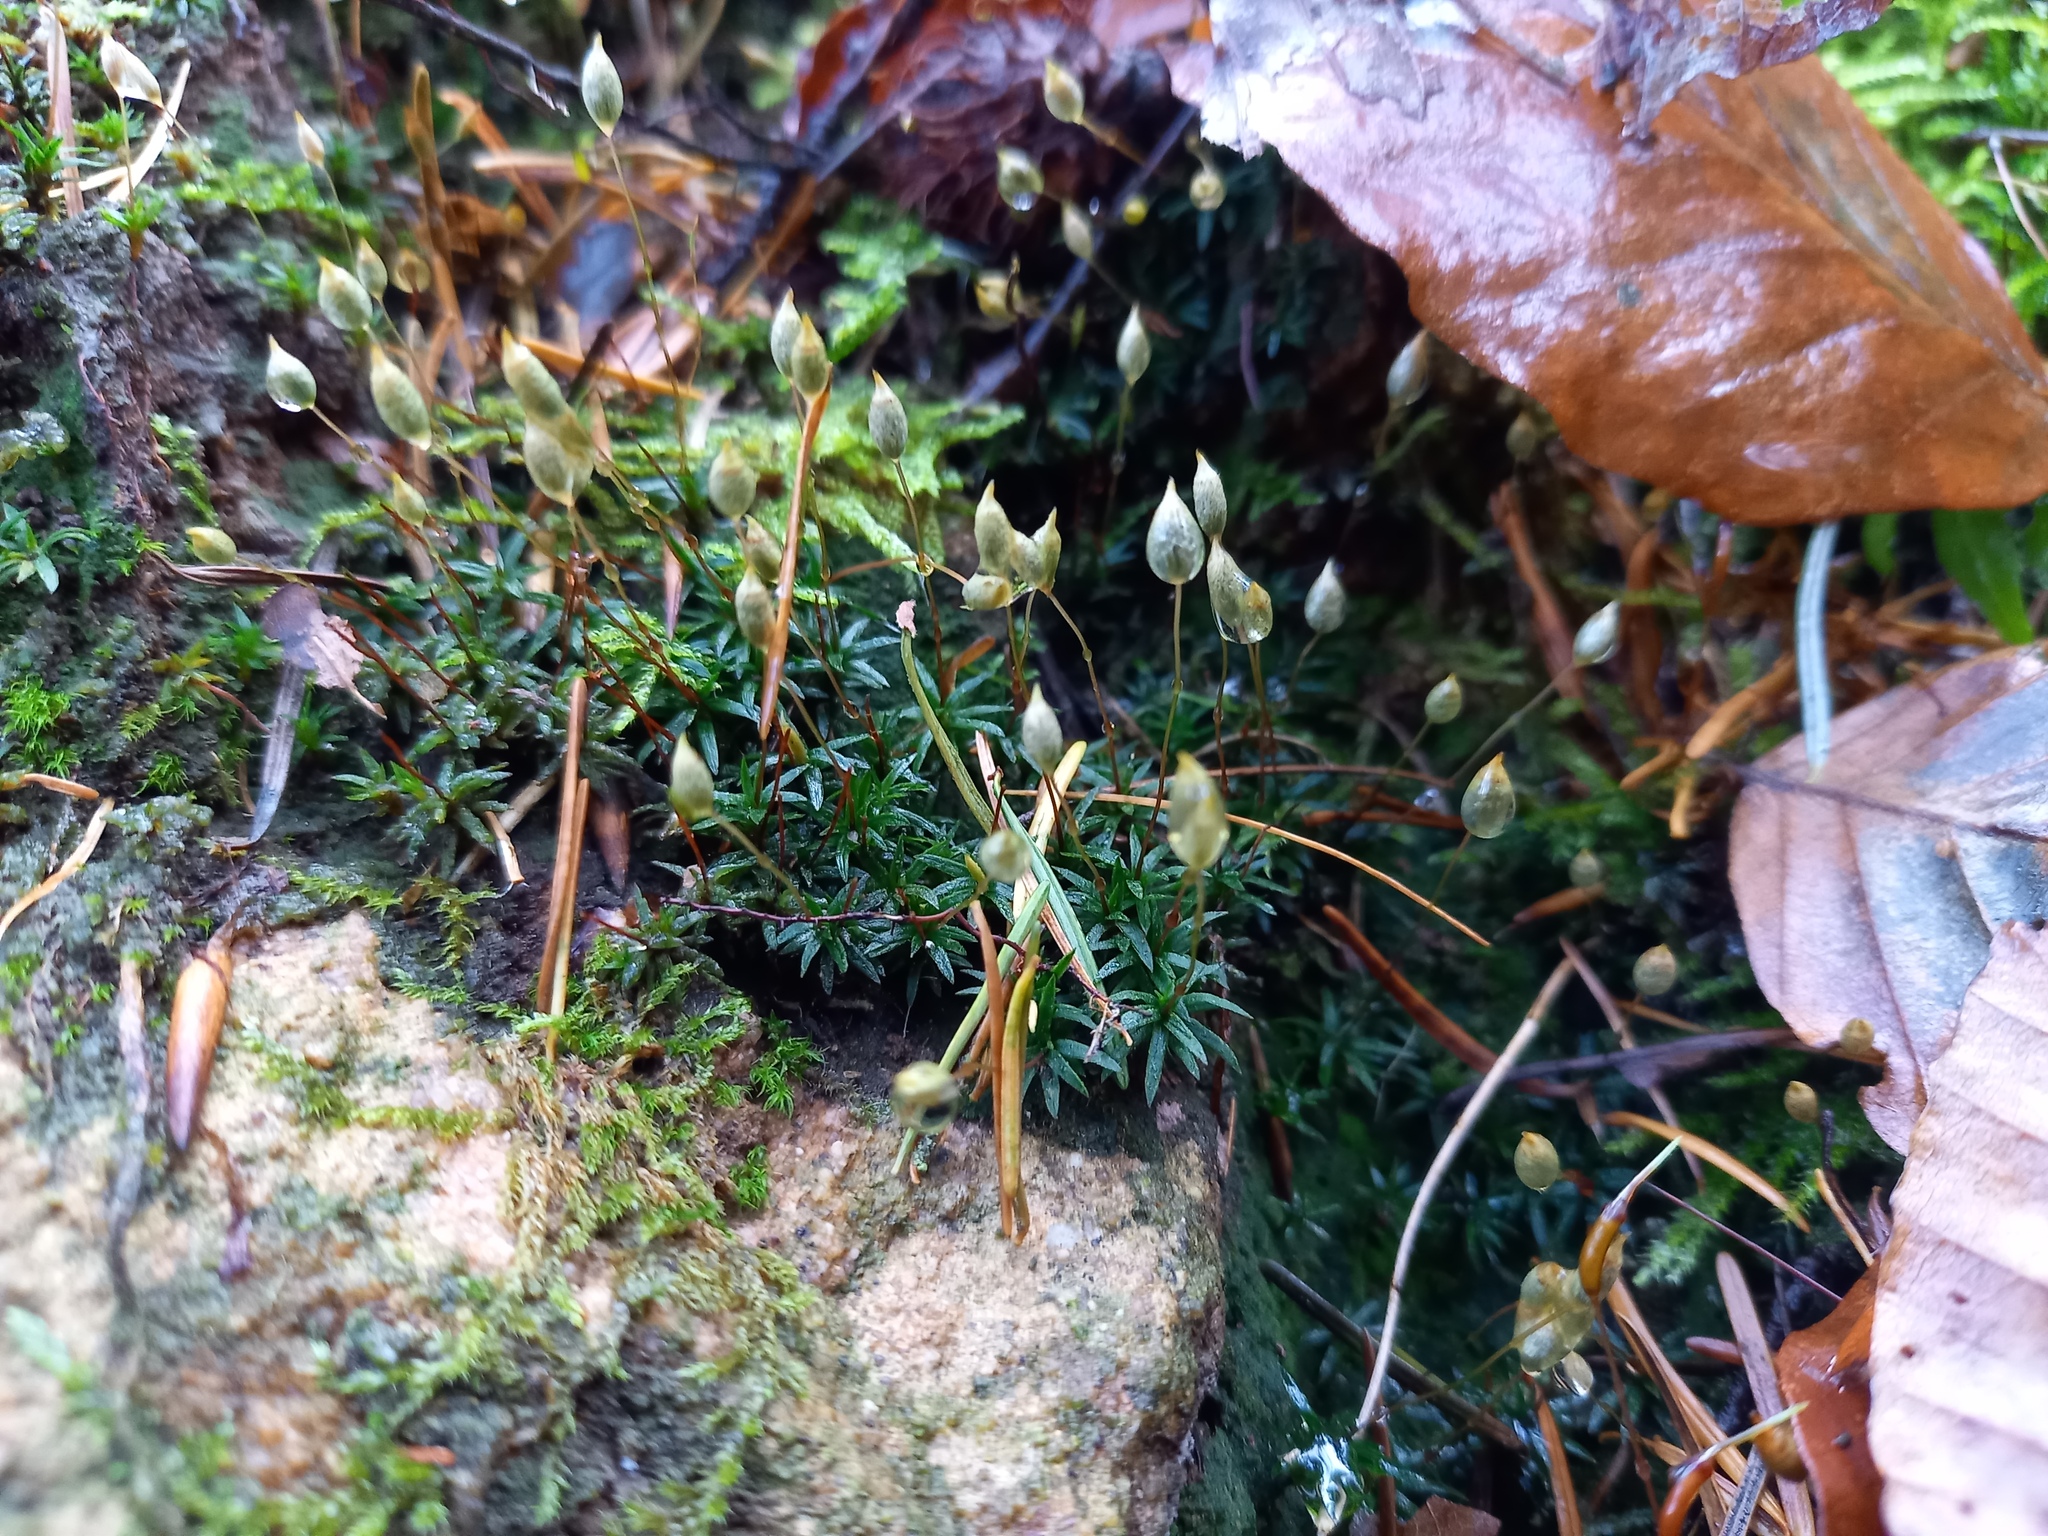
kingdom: Plantae
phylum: Bryophyta
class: Polytrichopsida
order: Polytrichales
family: Polytrichaceae
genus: Pogonatum
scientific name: Pogonatum aloides
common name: Aloe haircap
